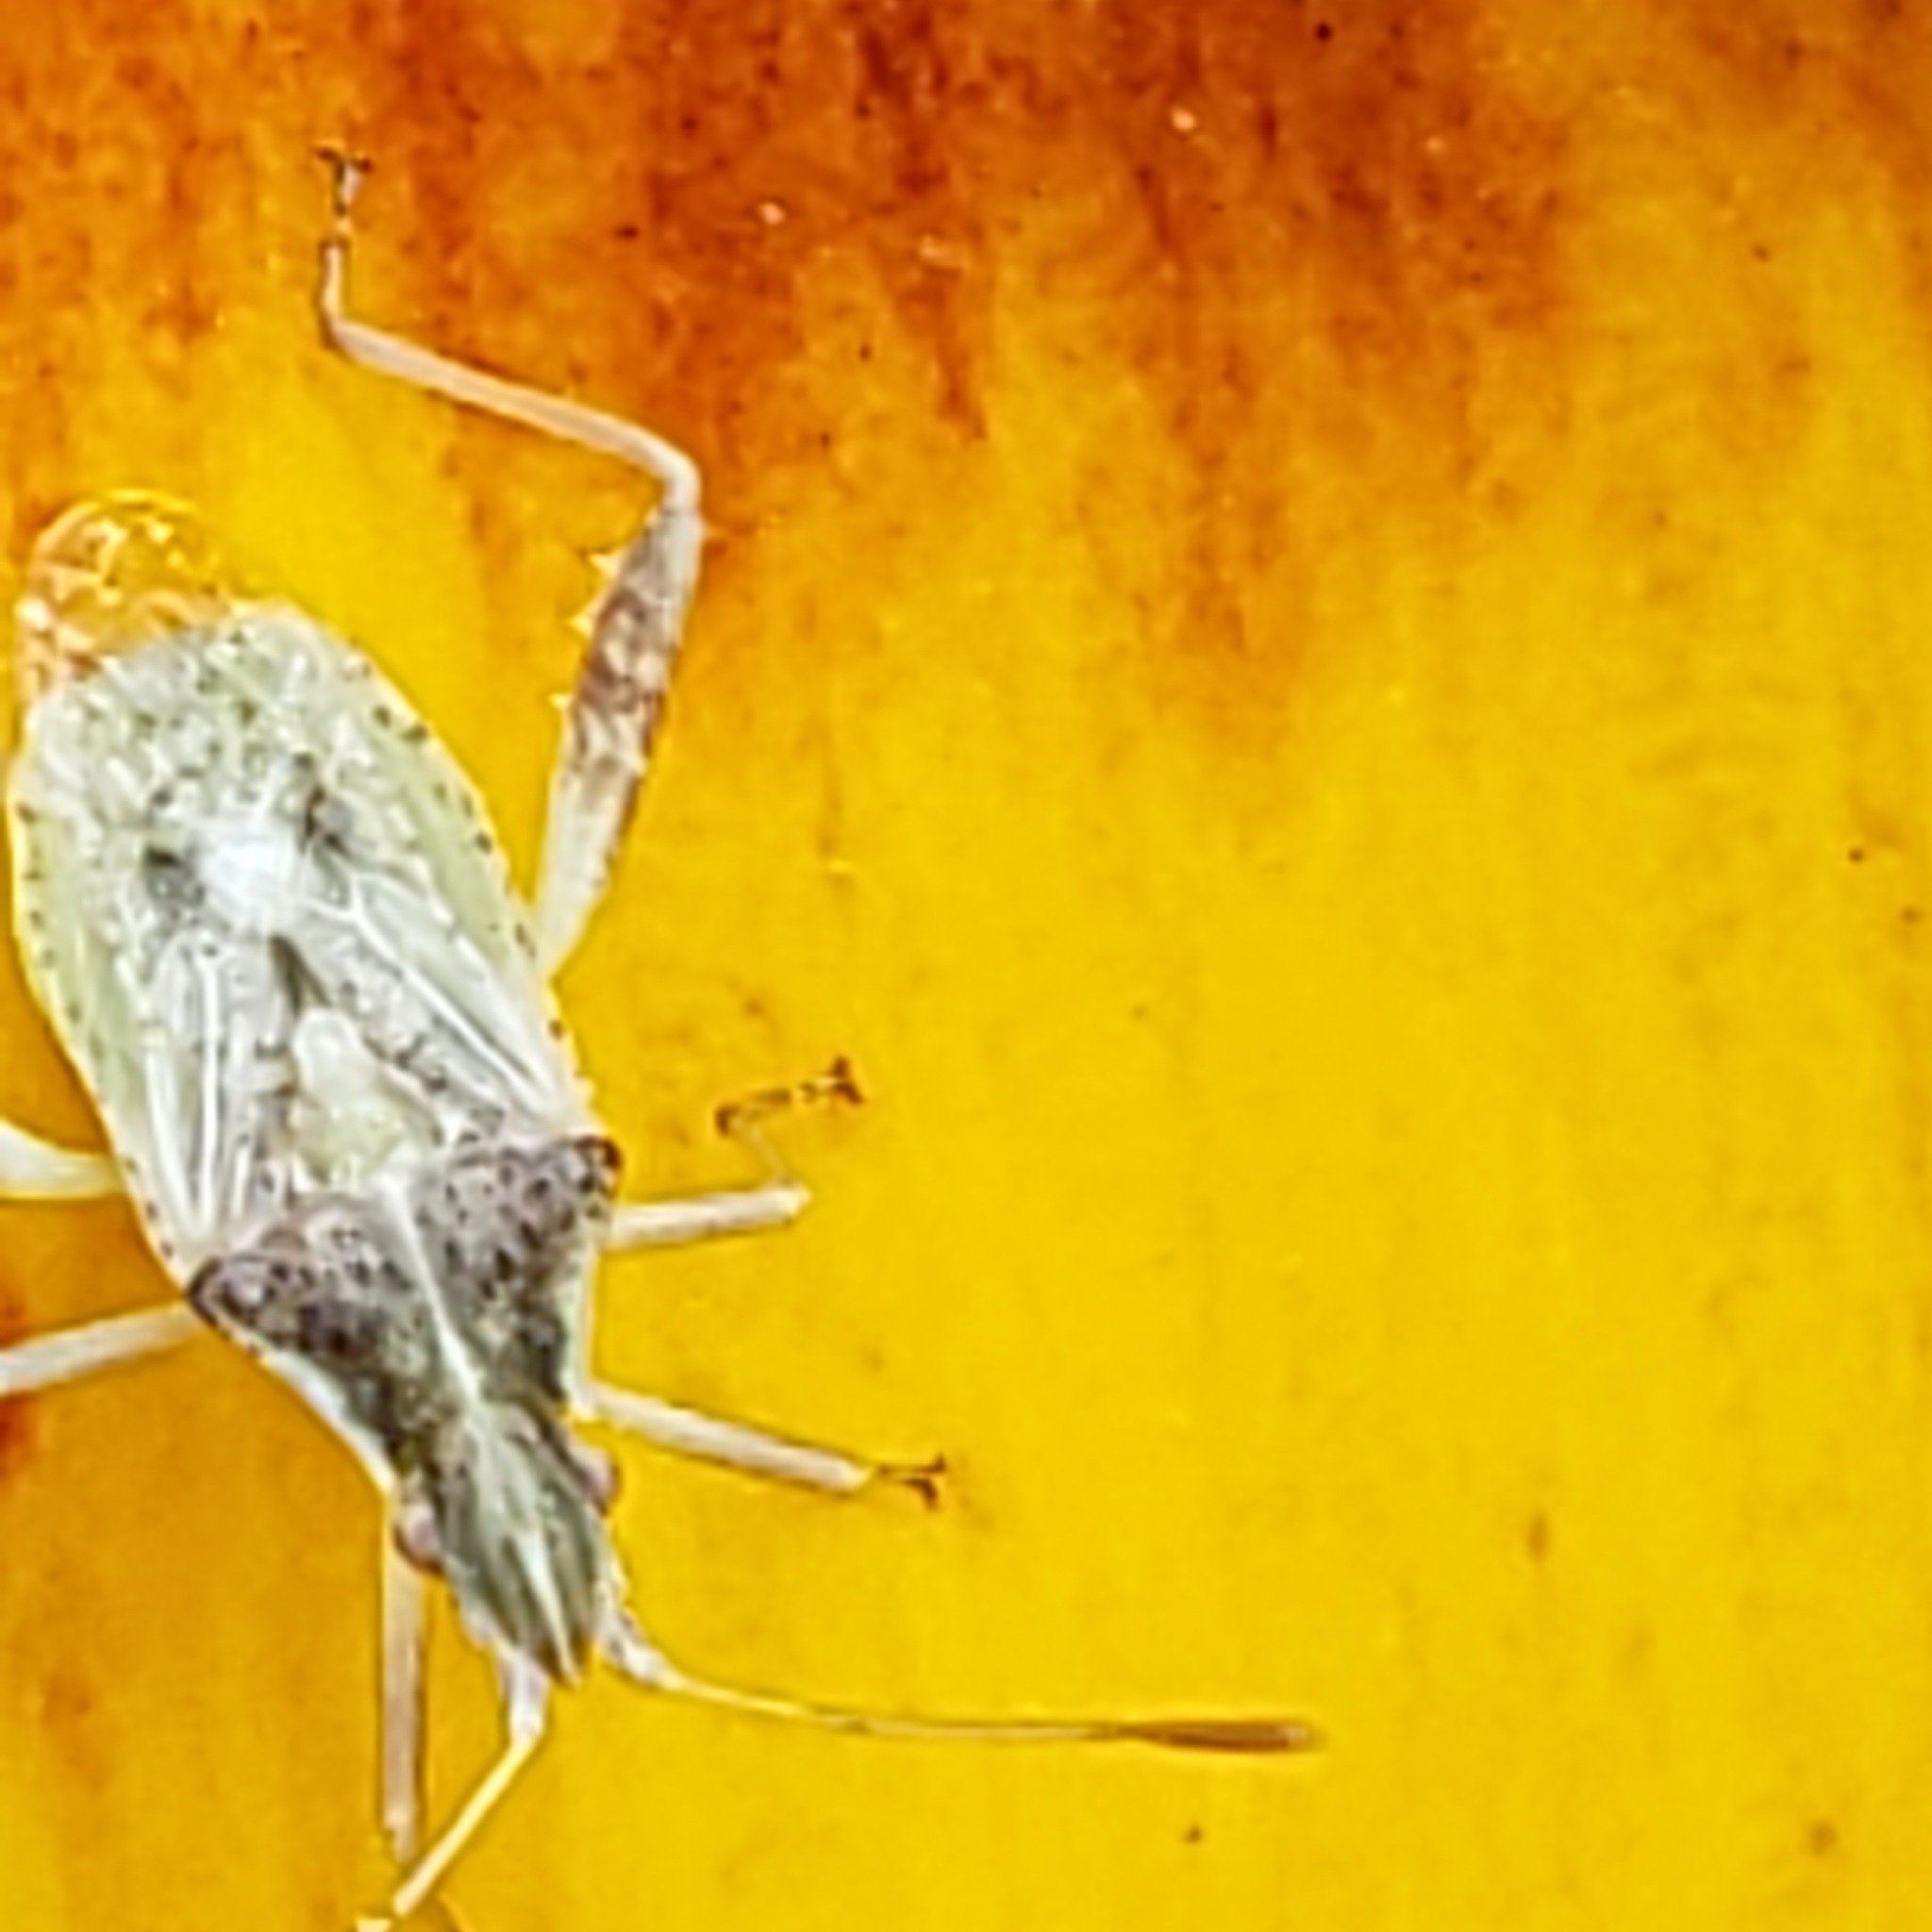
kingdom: Animalia
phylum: Arthropoda
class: Insecta
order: Hemiptera
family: Rhopalidae
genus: Harmostes
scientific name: Harmostes reflexulus
